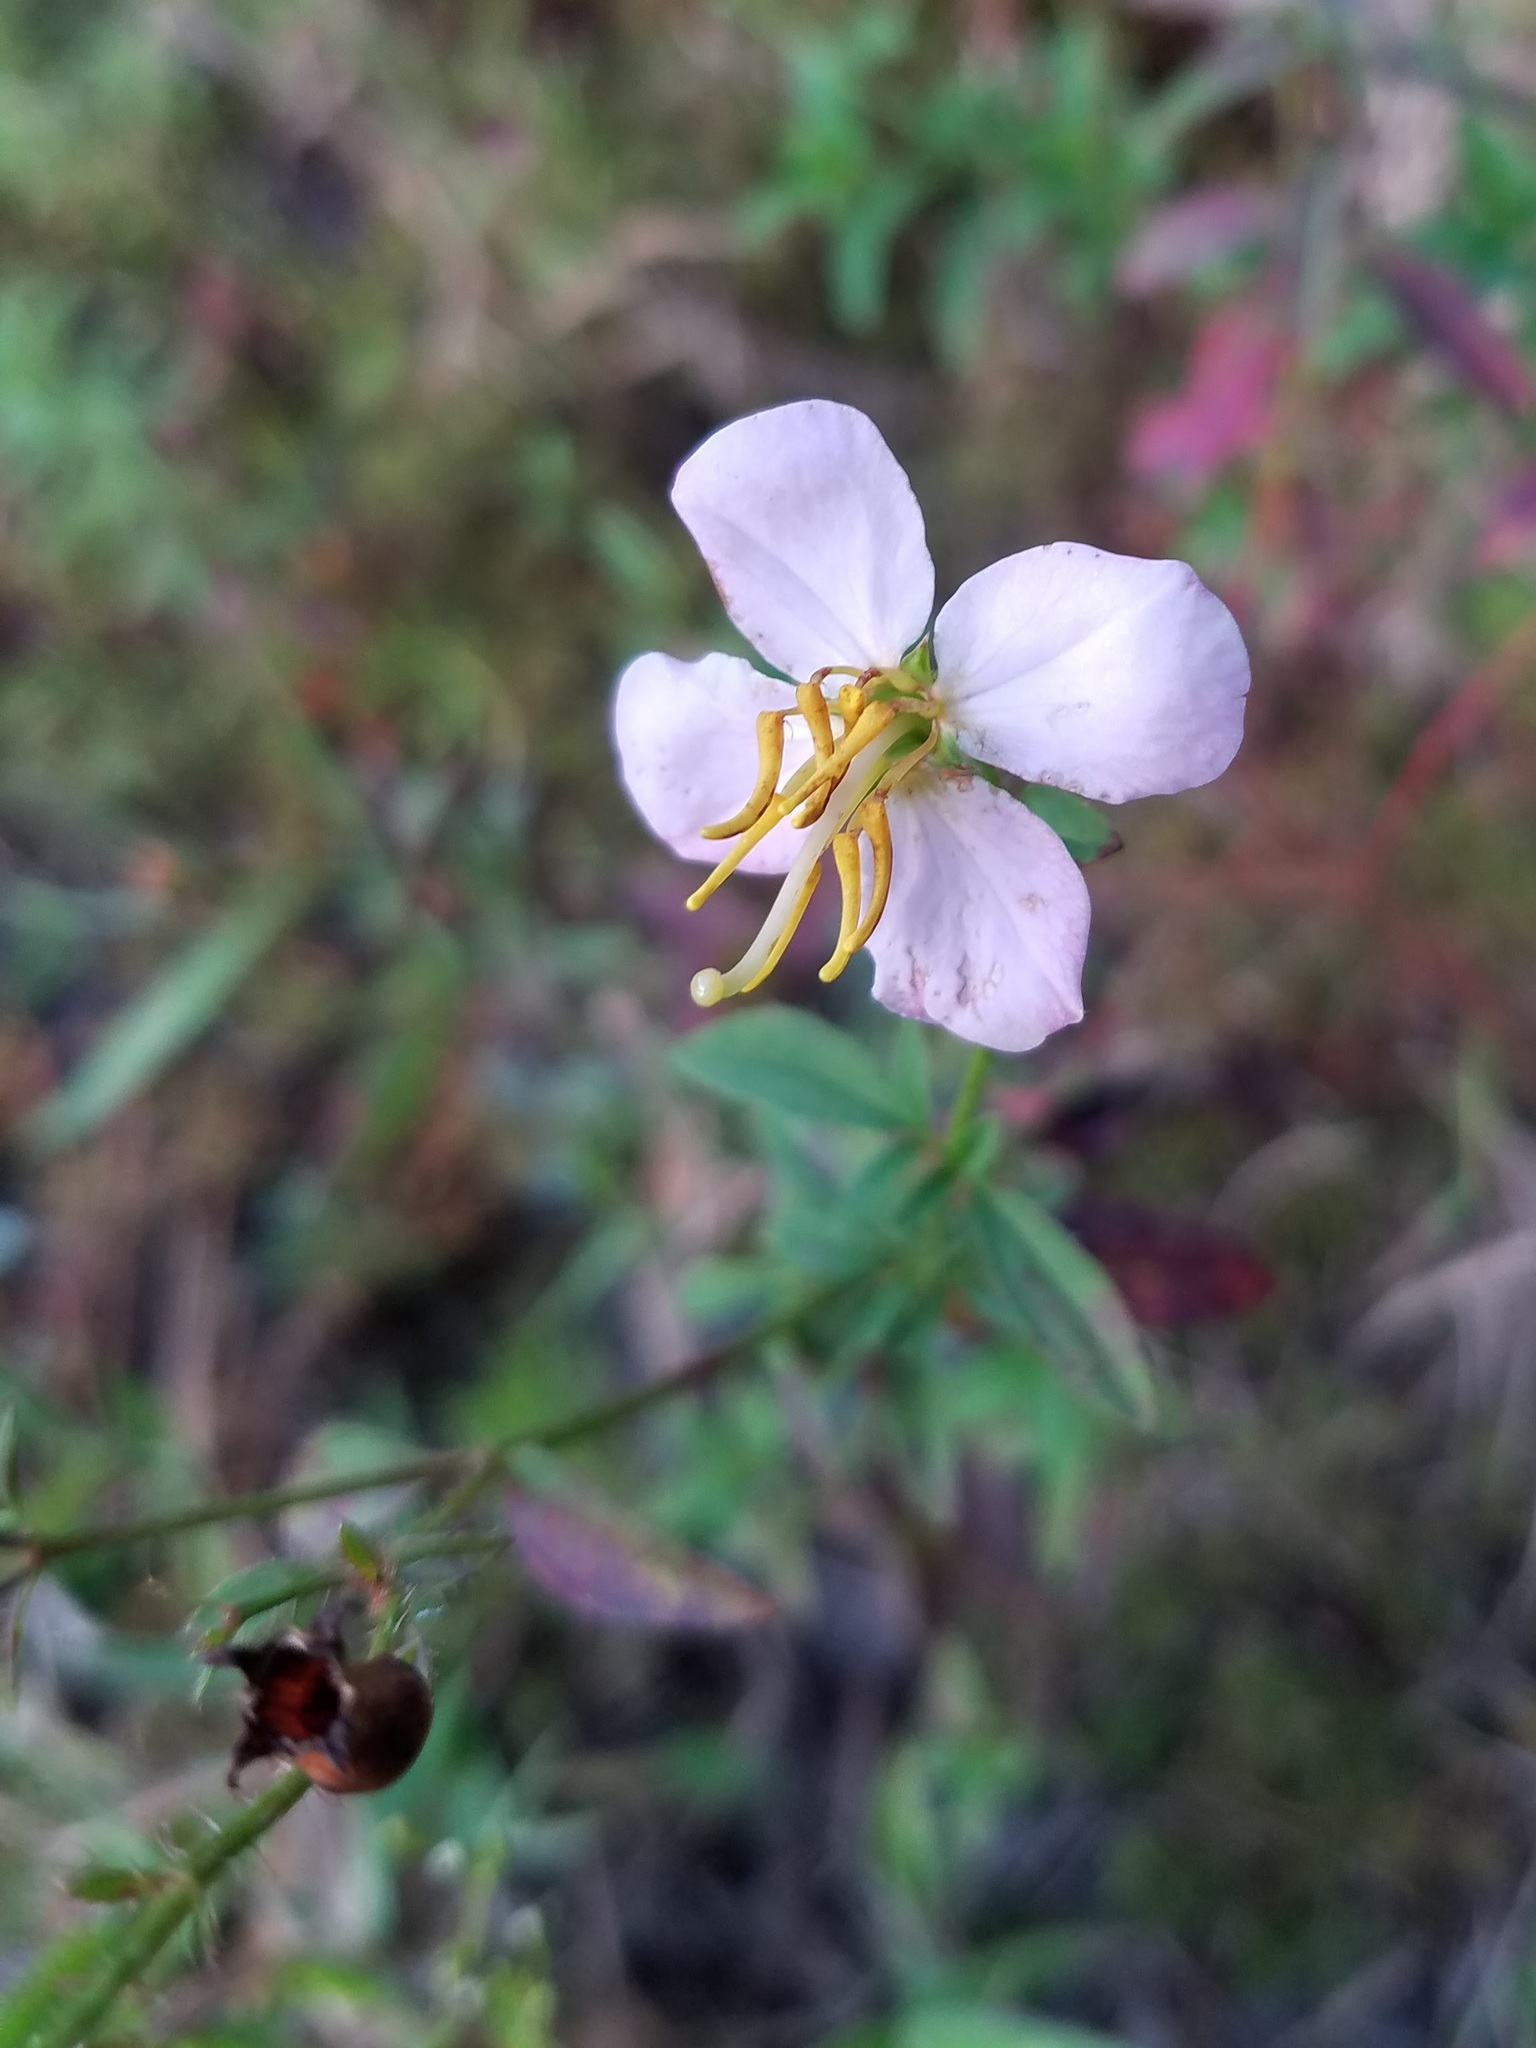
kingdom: Plantae
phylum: Tracheophyta
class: Magnoliopsida
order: Myrtales
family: Melastomataceae
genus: Rhexia
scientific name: Rhexia mariana
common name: Dull meadow-pitcher
